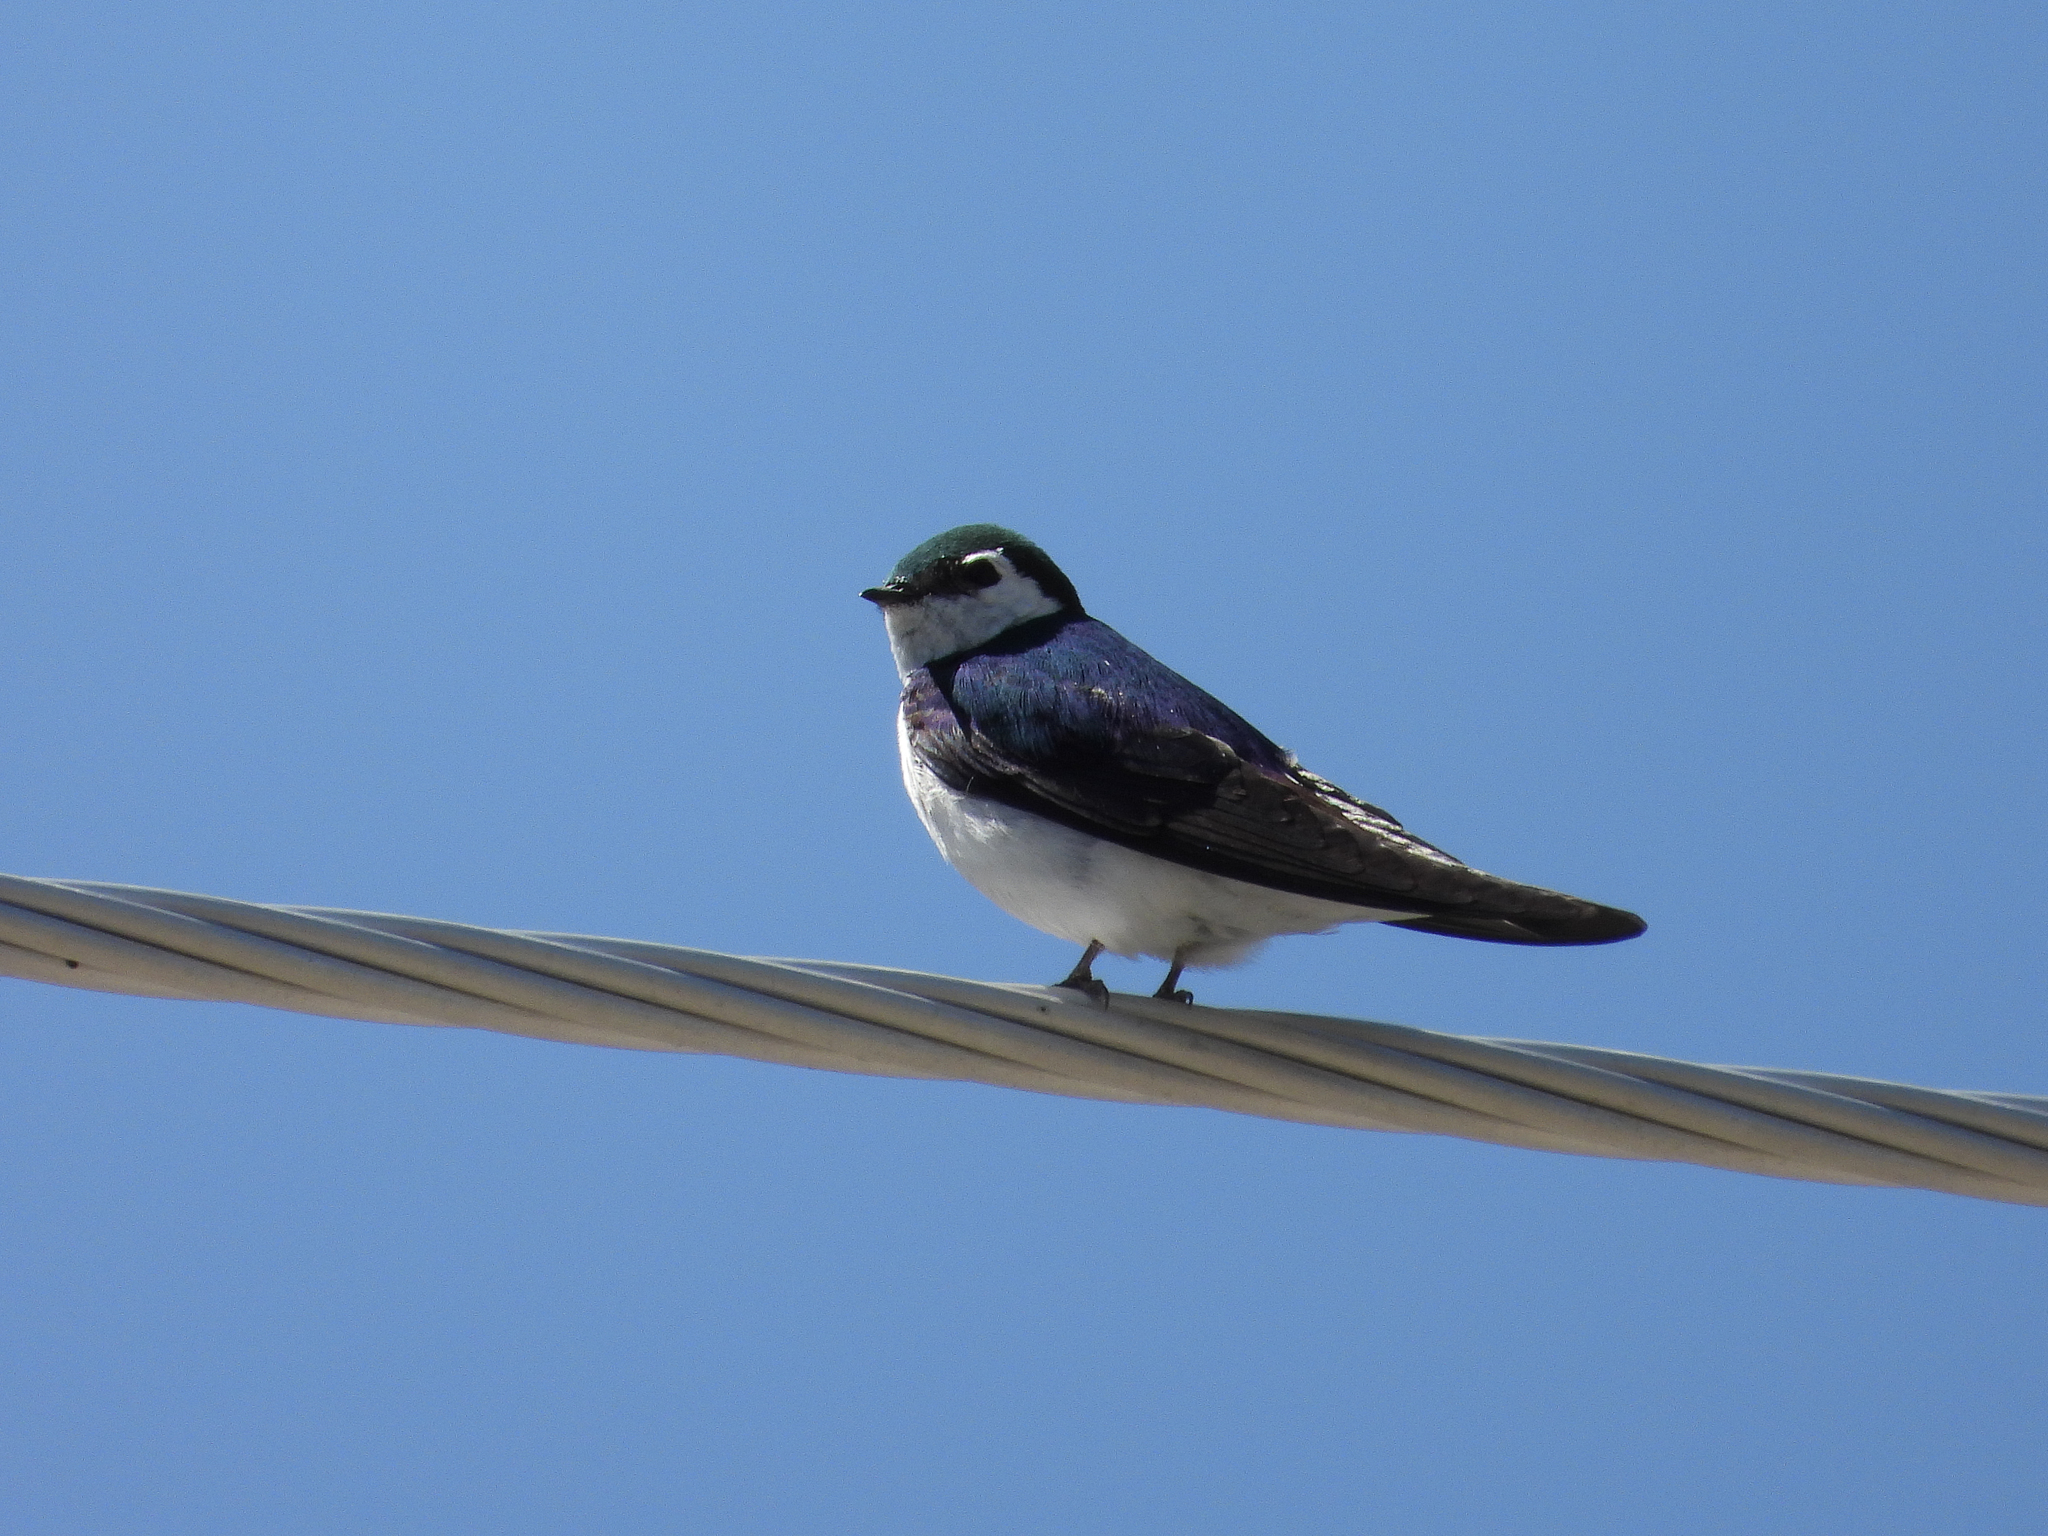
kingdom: Animalia
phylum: Chordata
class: Aves
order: Passeriformes
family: Hirundinidae
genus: Tachycineta
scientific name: Tachycineta thalassina
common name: Violet-green swallow
